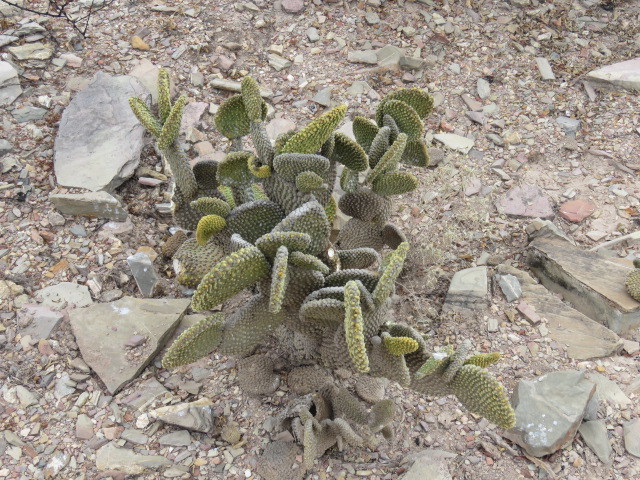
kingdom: Plantae
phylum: Tracheophyta
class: Magnoliopsida
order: Caryophyllales
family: Cactaceae
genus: Opuntia
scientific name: Opuntia microdasys
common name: Angel's-wings
